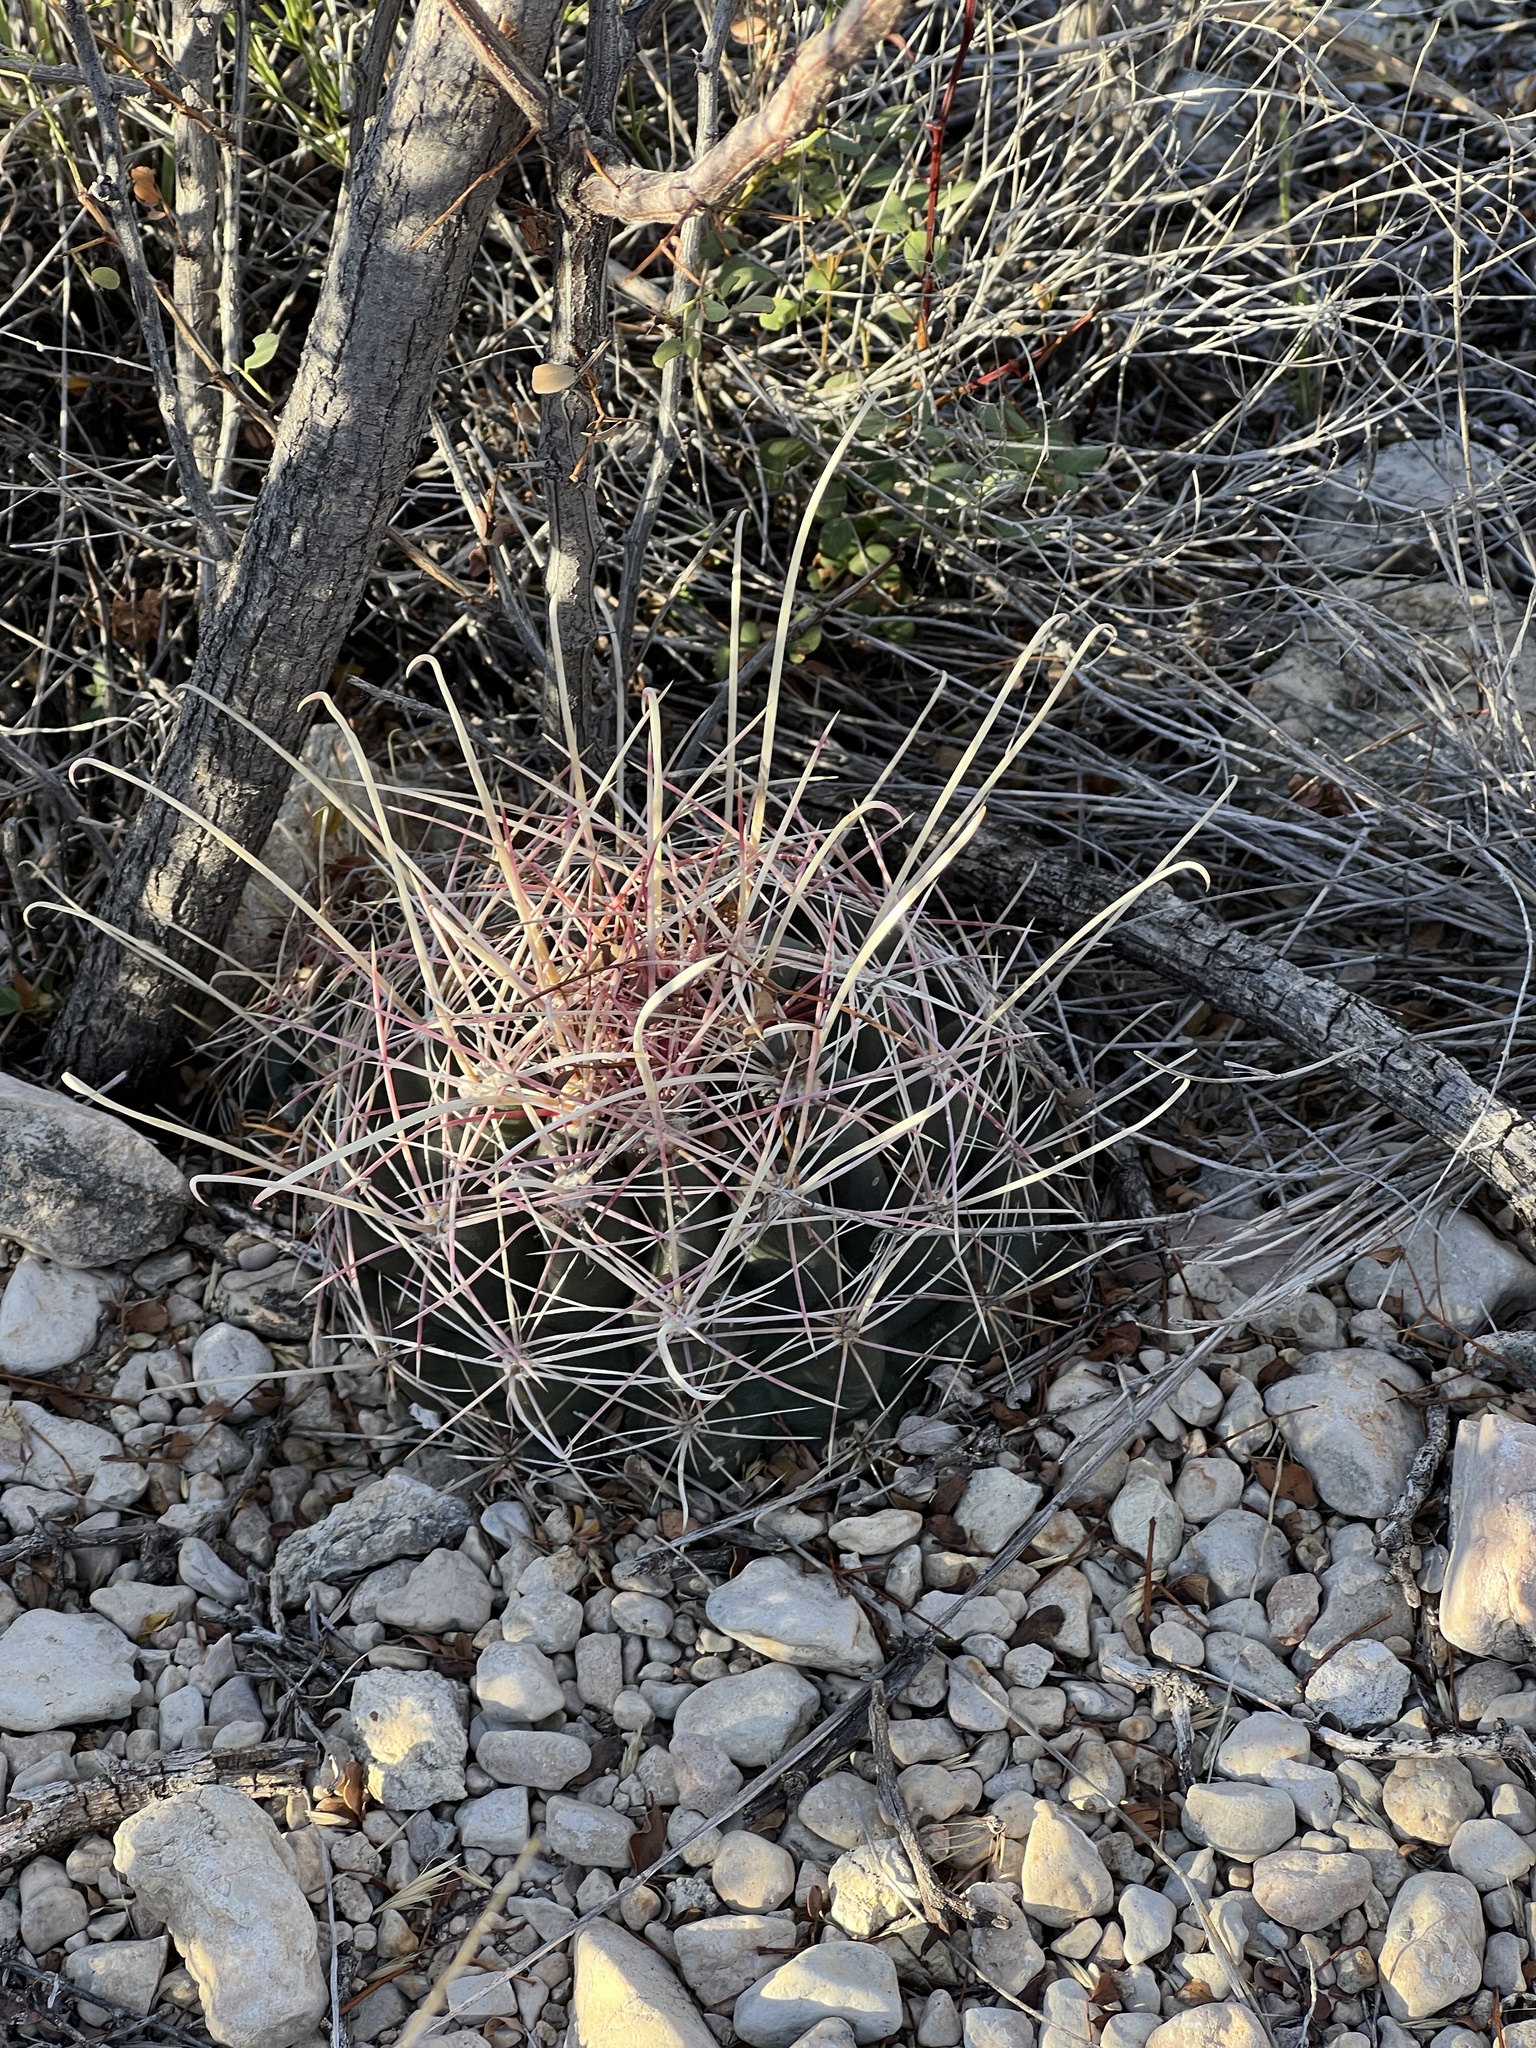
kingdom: Plantae
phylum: Tracheophyta
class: Magnoliopsida
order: Caryophyllales
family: Cactaceae
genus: Bisnaga
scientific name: Bisnaga hamatacantha
